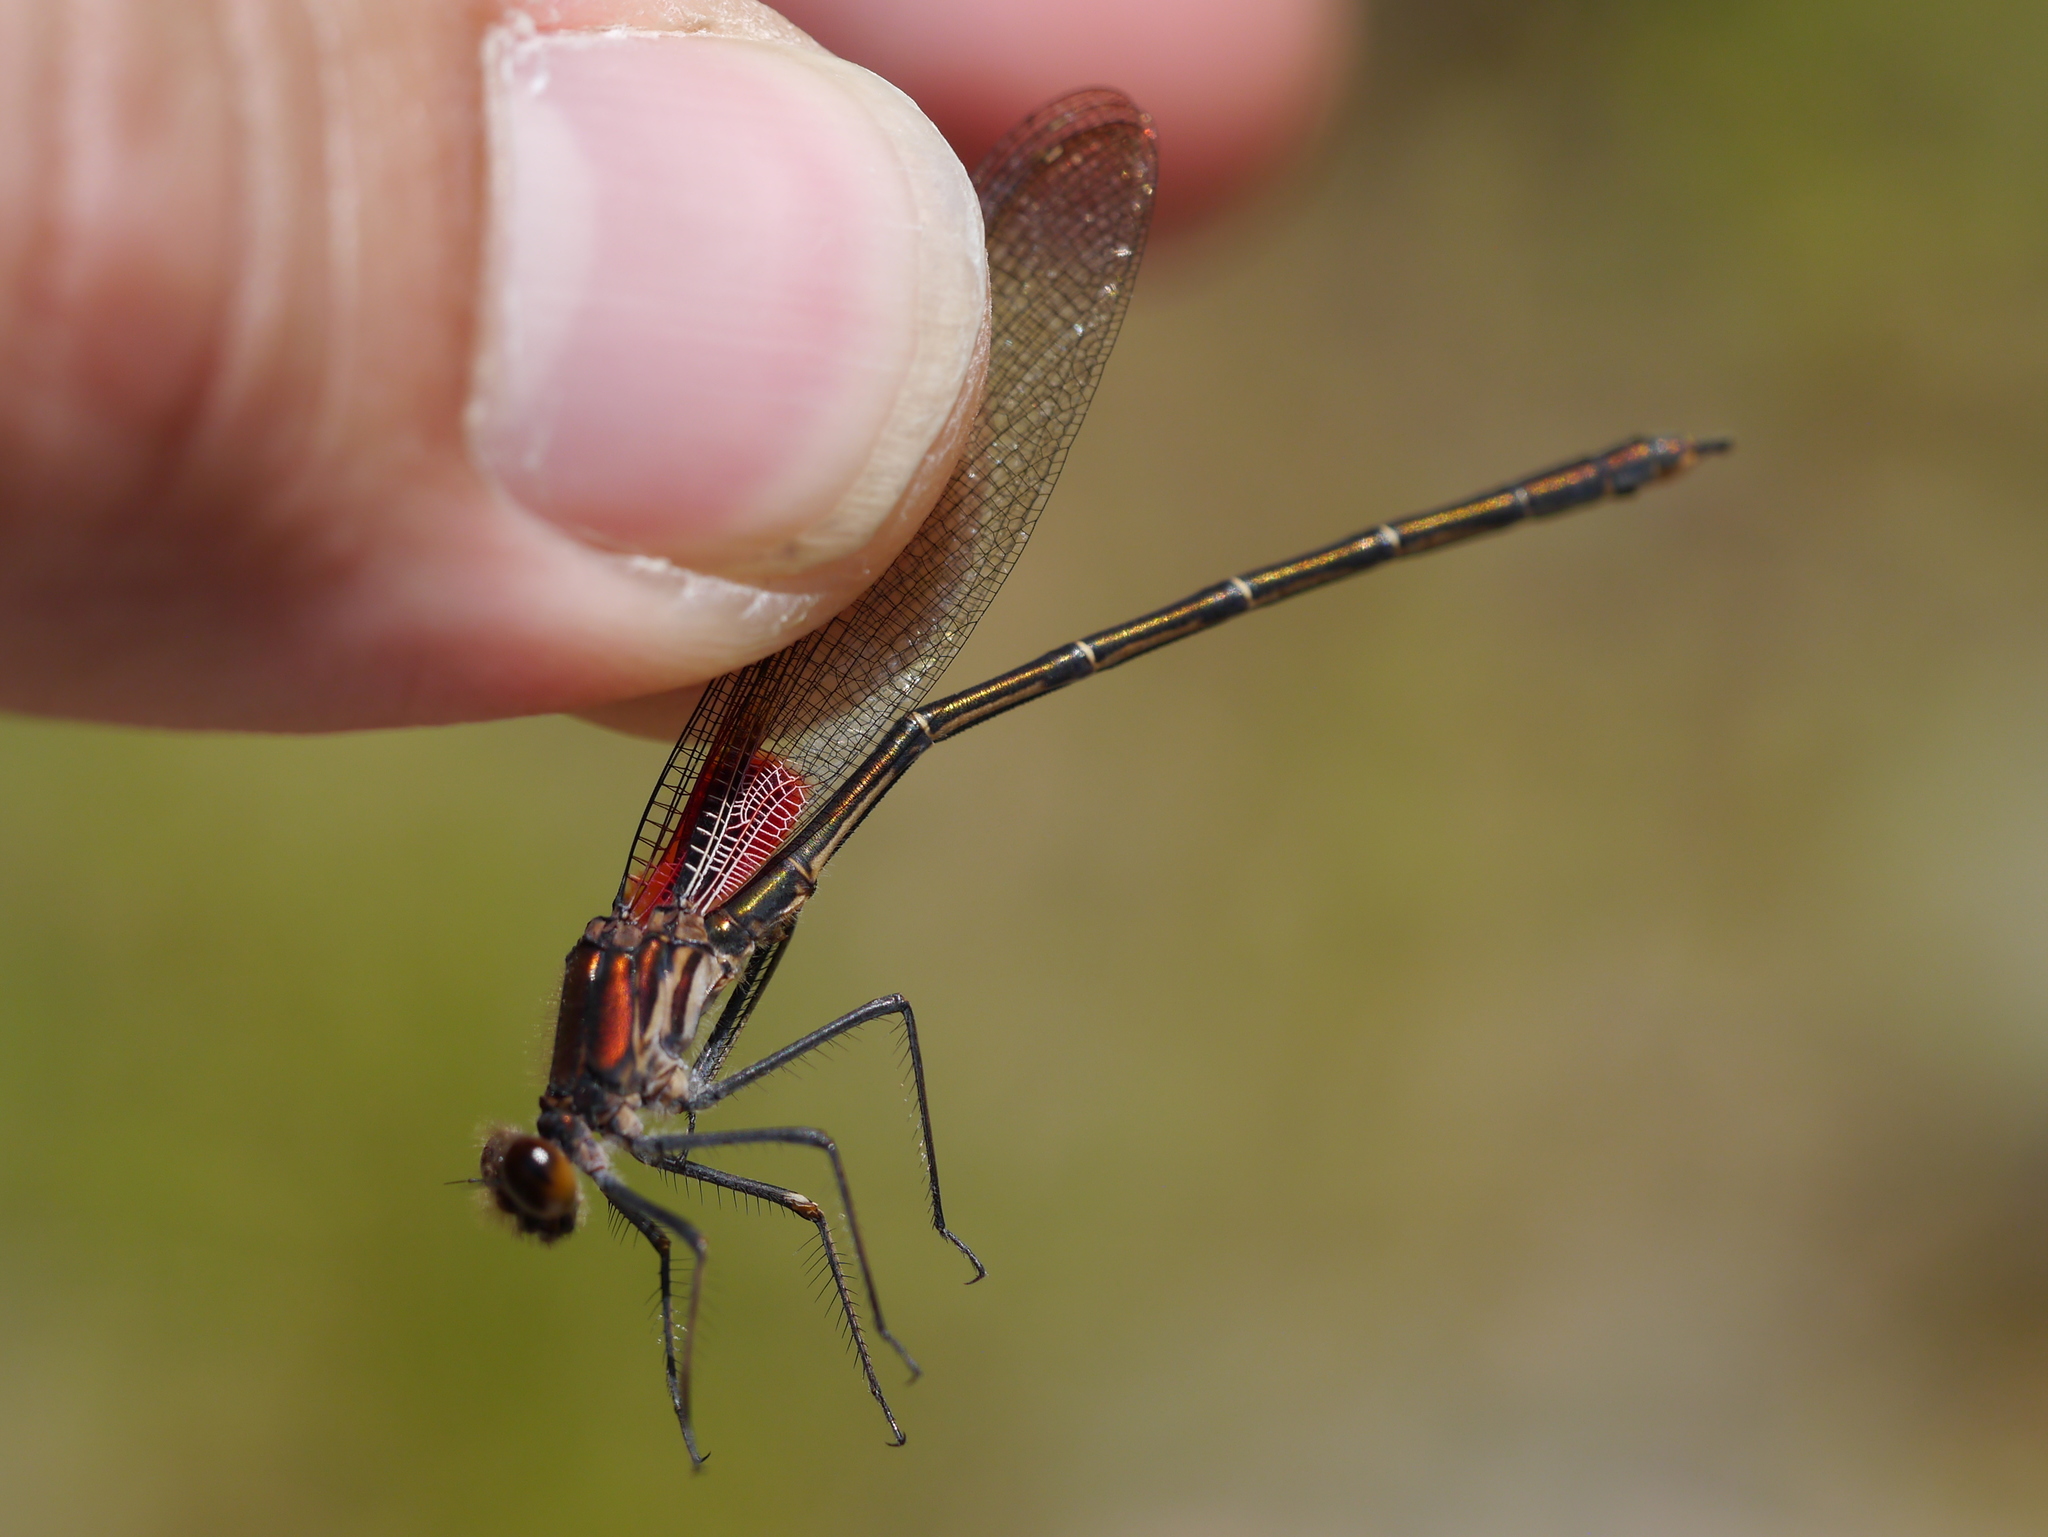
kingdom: Animalia
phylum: Arthropoda
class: Insecta
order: Odonata
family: Calopterygidae
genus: Hetaerina
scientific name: Hetaerina americana
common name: American rubyspot
